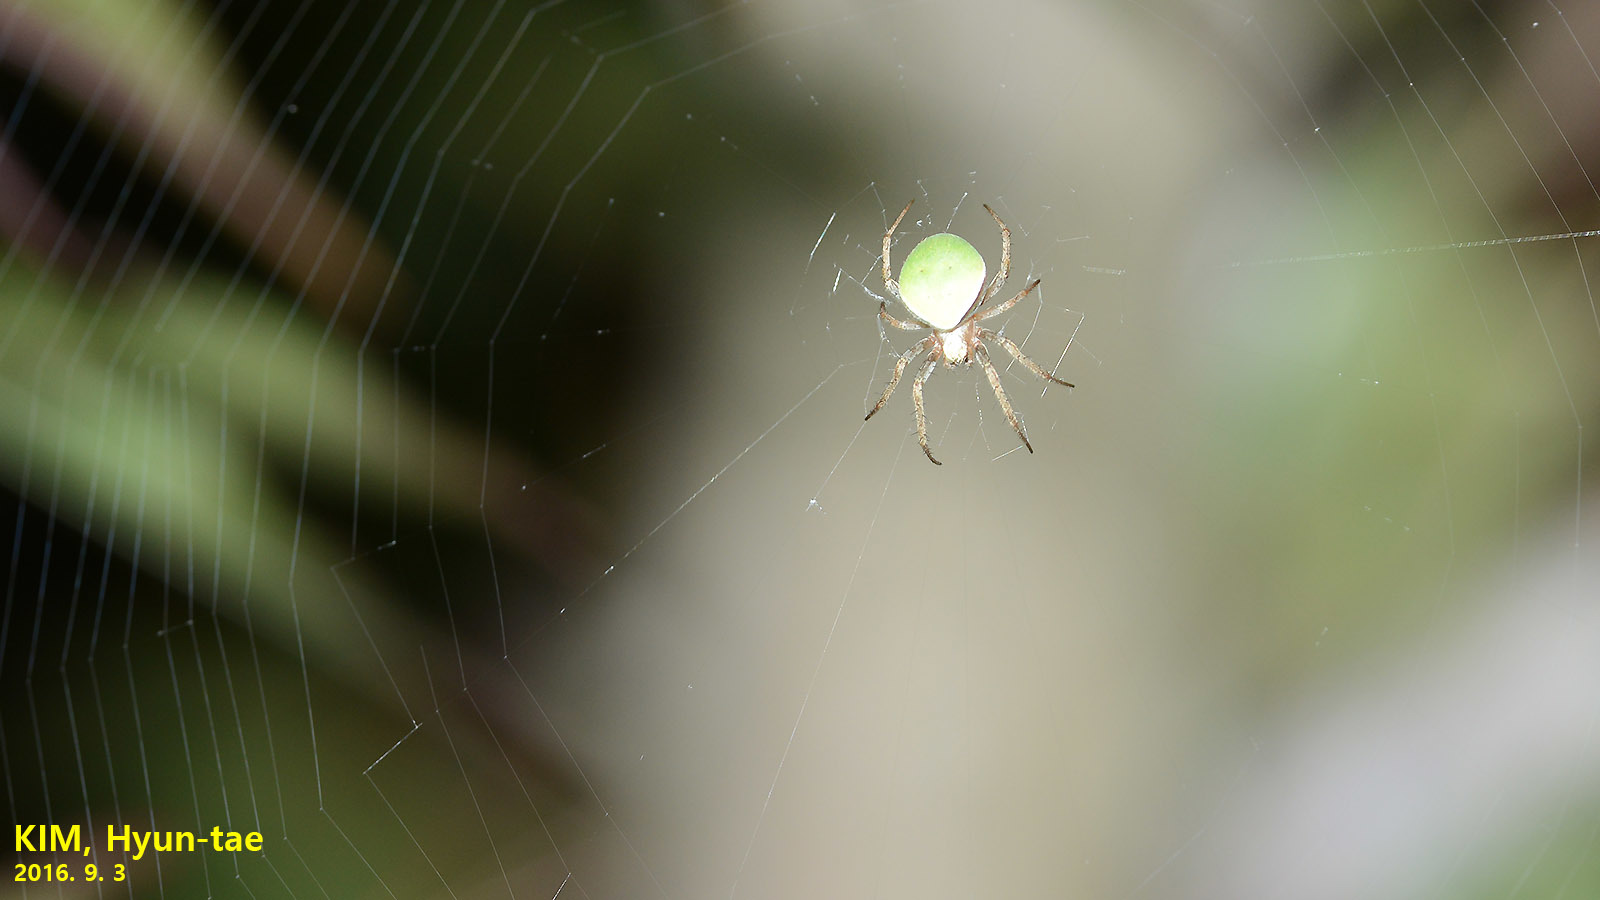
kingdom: Animalia
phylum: Arthropoda
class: Arachnida
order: Araneae
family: Araneidae
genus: Neoscona
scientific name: Neoscona mellotteei
